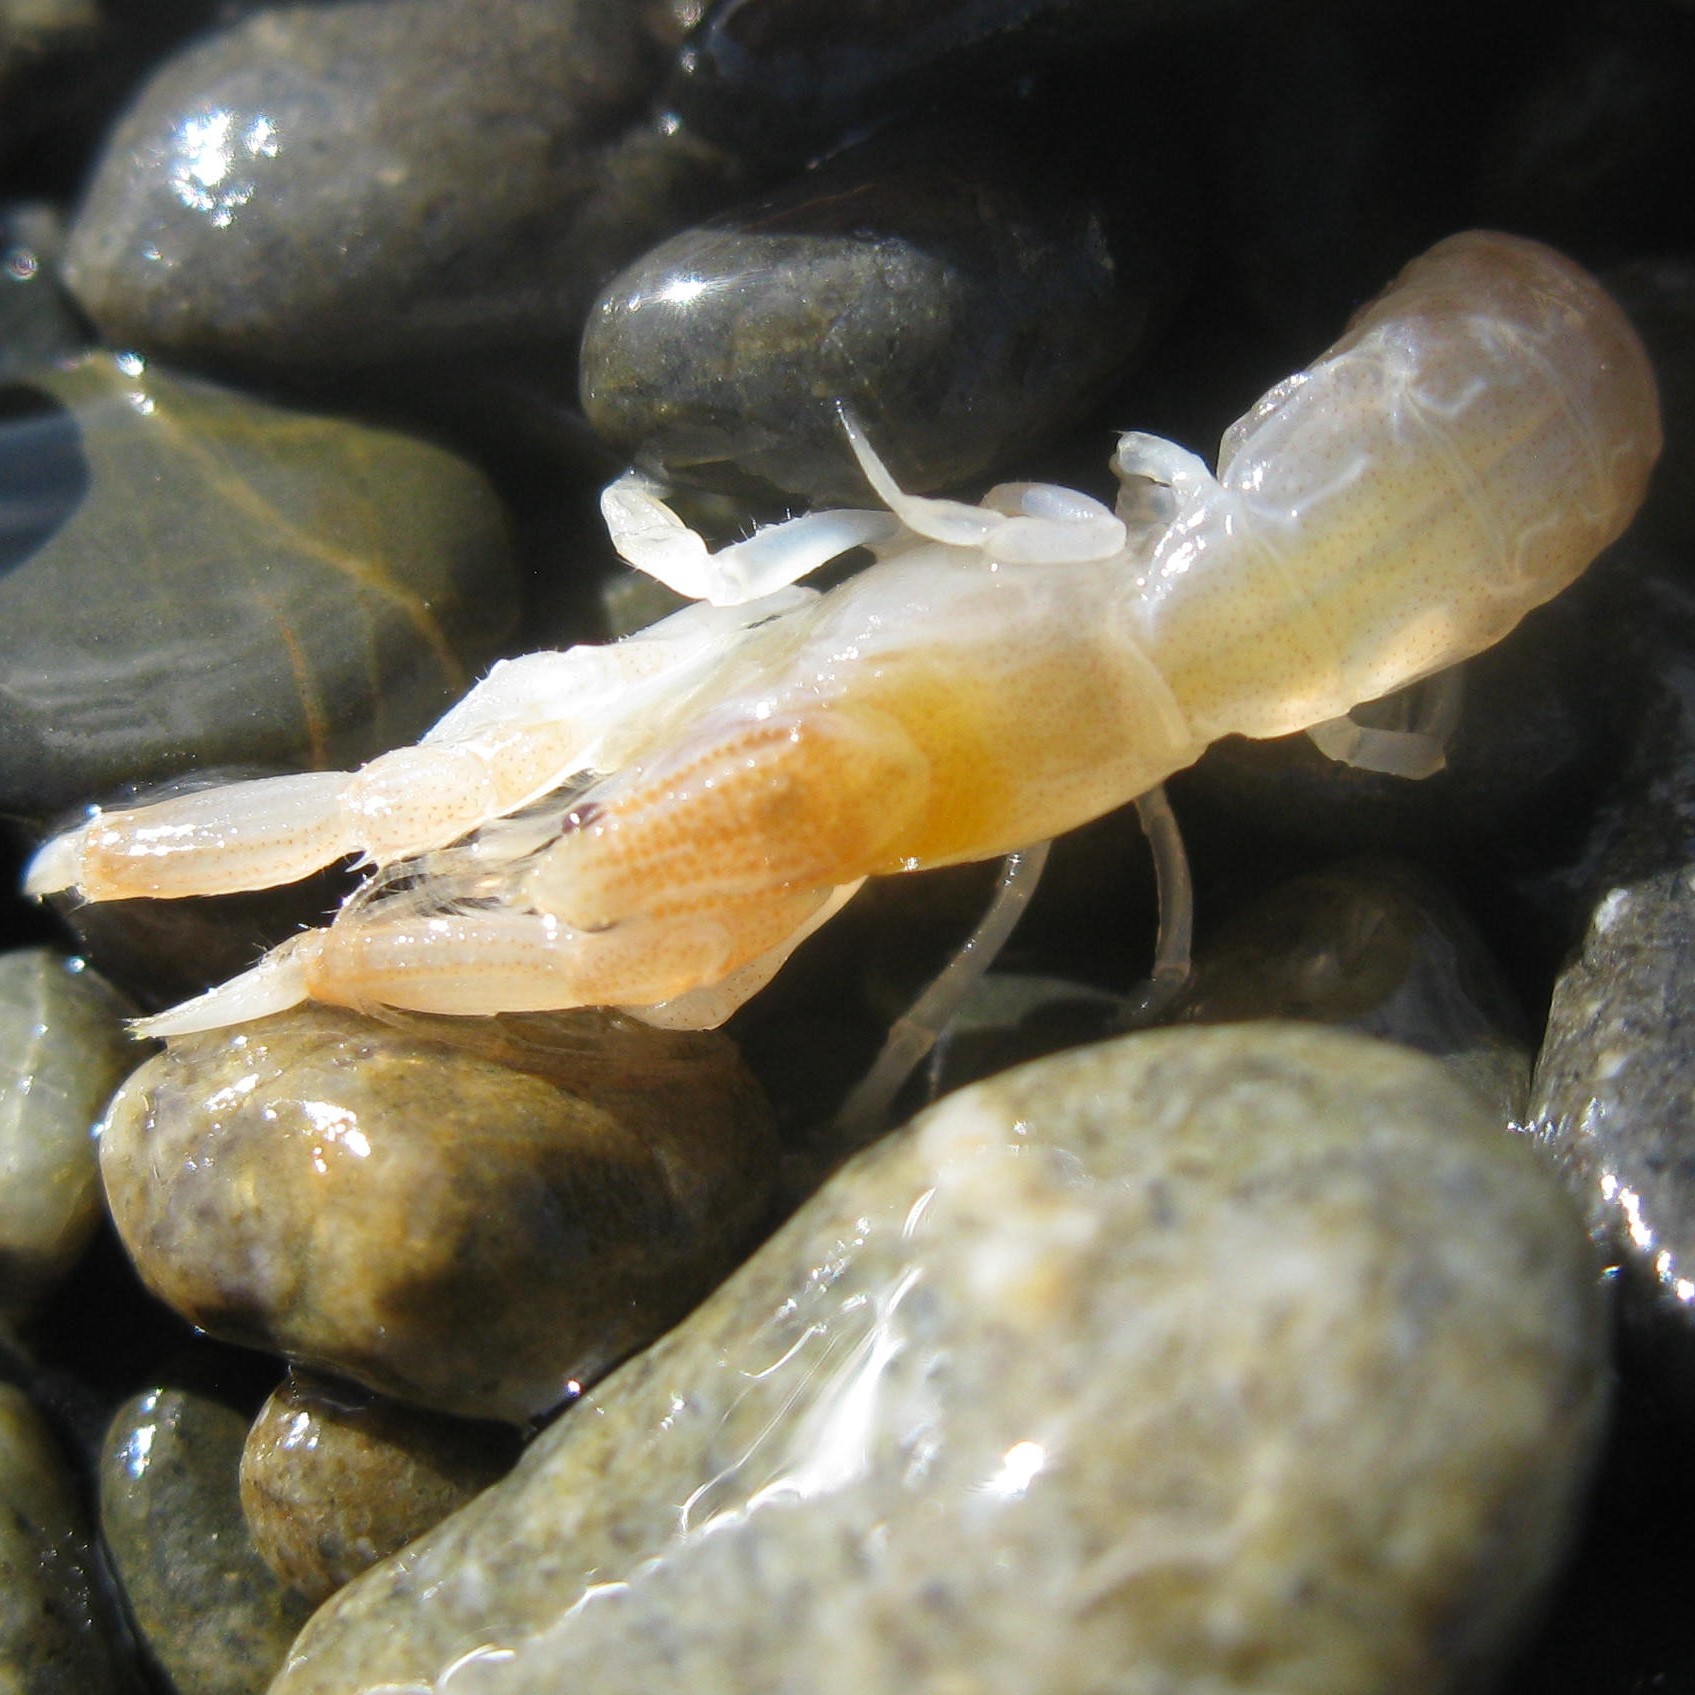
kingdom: Animalia
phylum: Arthropoda
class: Malacostraca
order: Decapoda
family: Upogebiidae
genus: Upogebia
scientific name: Upogebia hirtifrons
